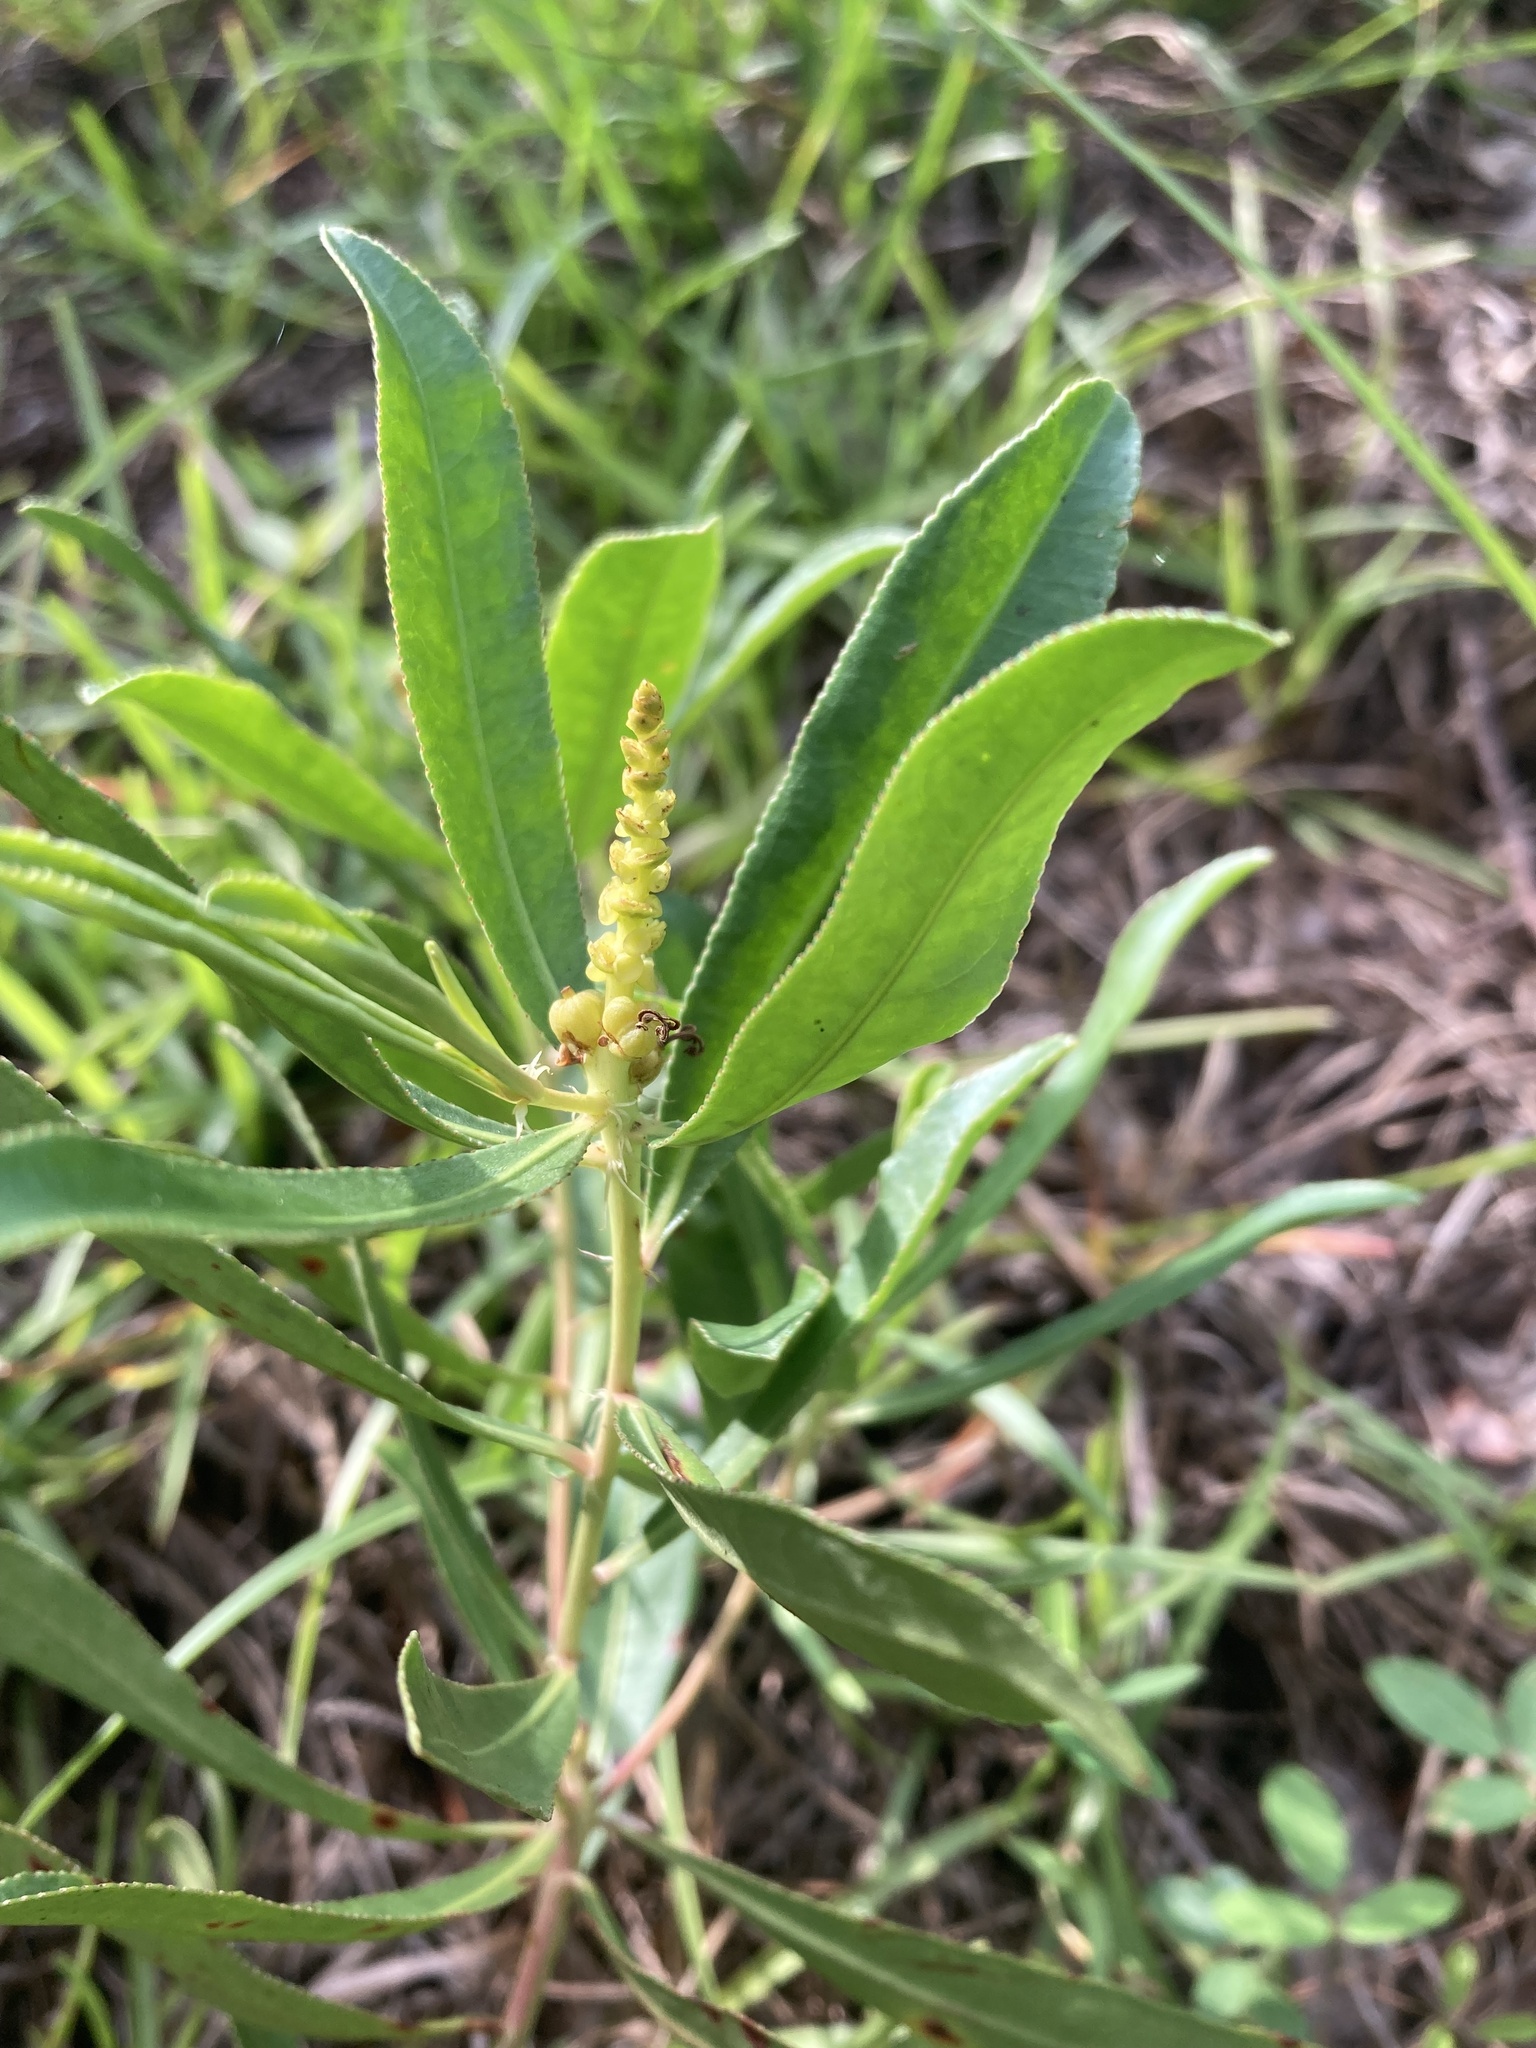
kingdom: Plantae
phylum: Tracheophyta
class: Magnoliopsida
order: Malpighiales
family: Euphorbiaceae
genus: Stillingia
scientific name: Stillingia sylvatica
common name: Queen's-delight
